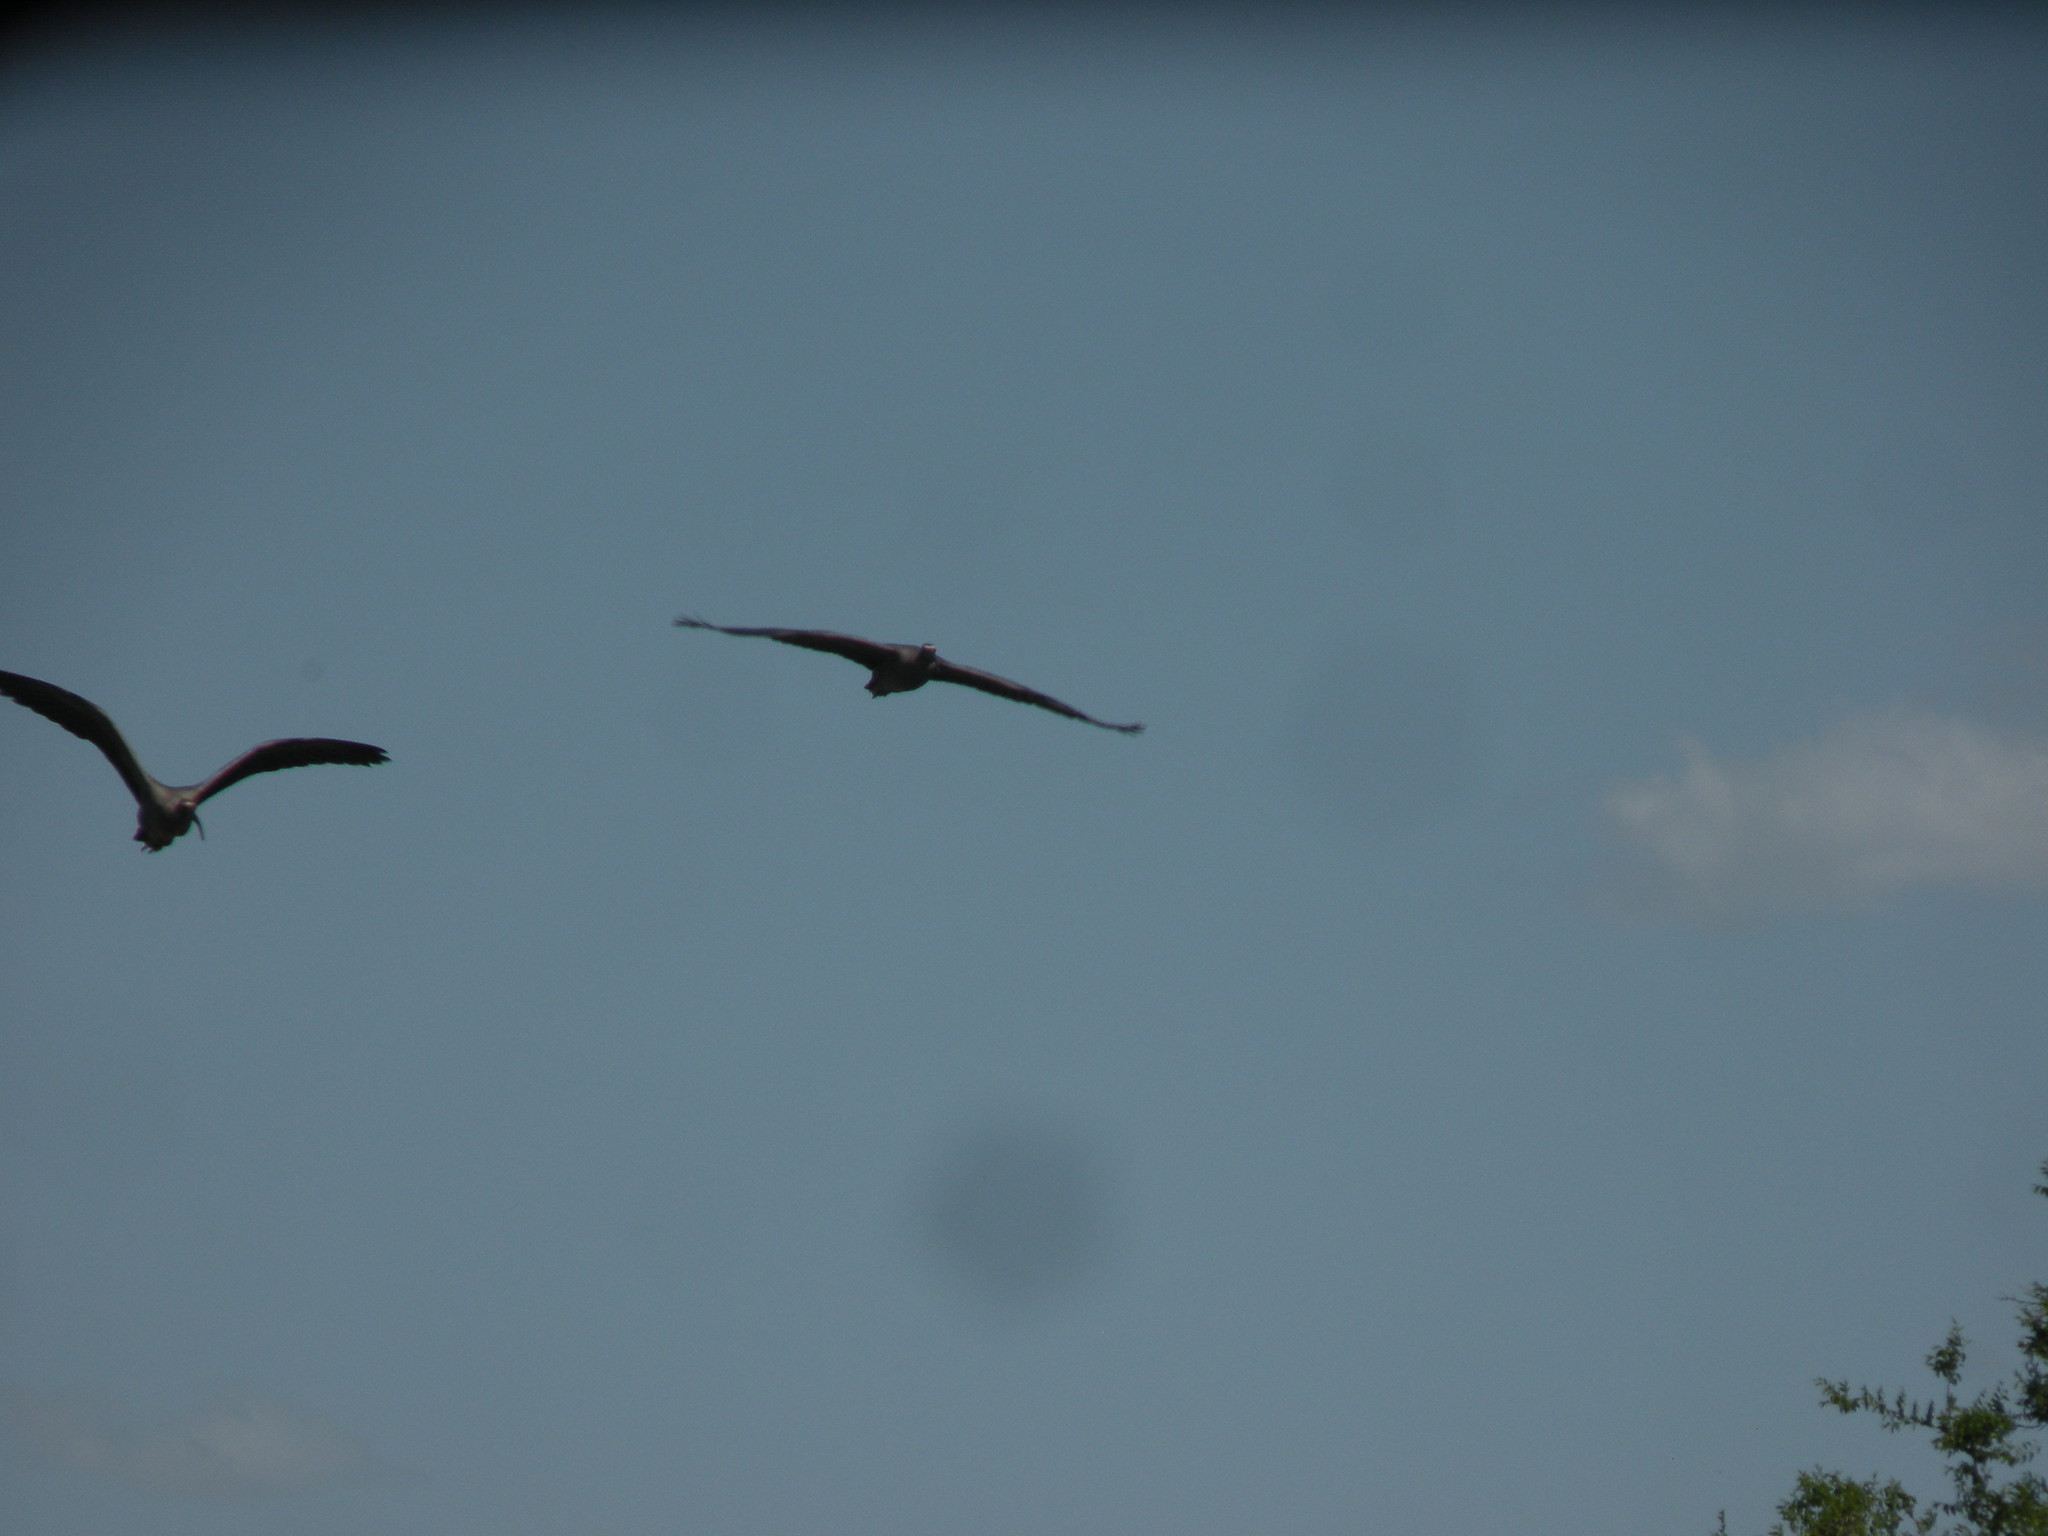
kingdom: Animalia
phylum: Chordata
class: Aves
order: Pelecaniformes
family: Threskiornithidae
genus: Theristicus
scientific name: Theristicus caerulescens
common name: Plumbeous ibis
